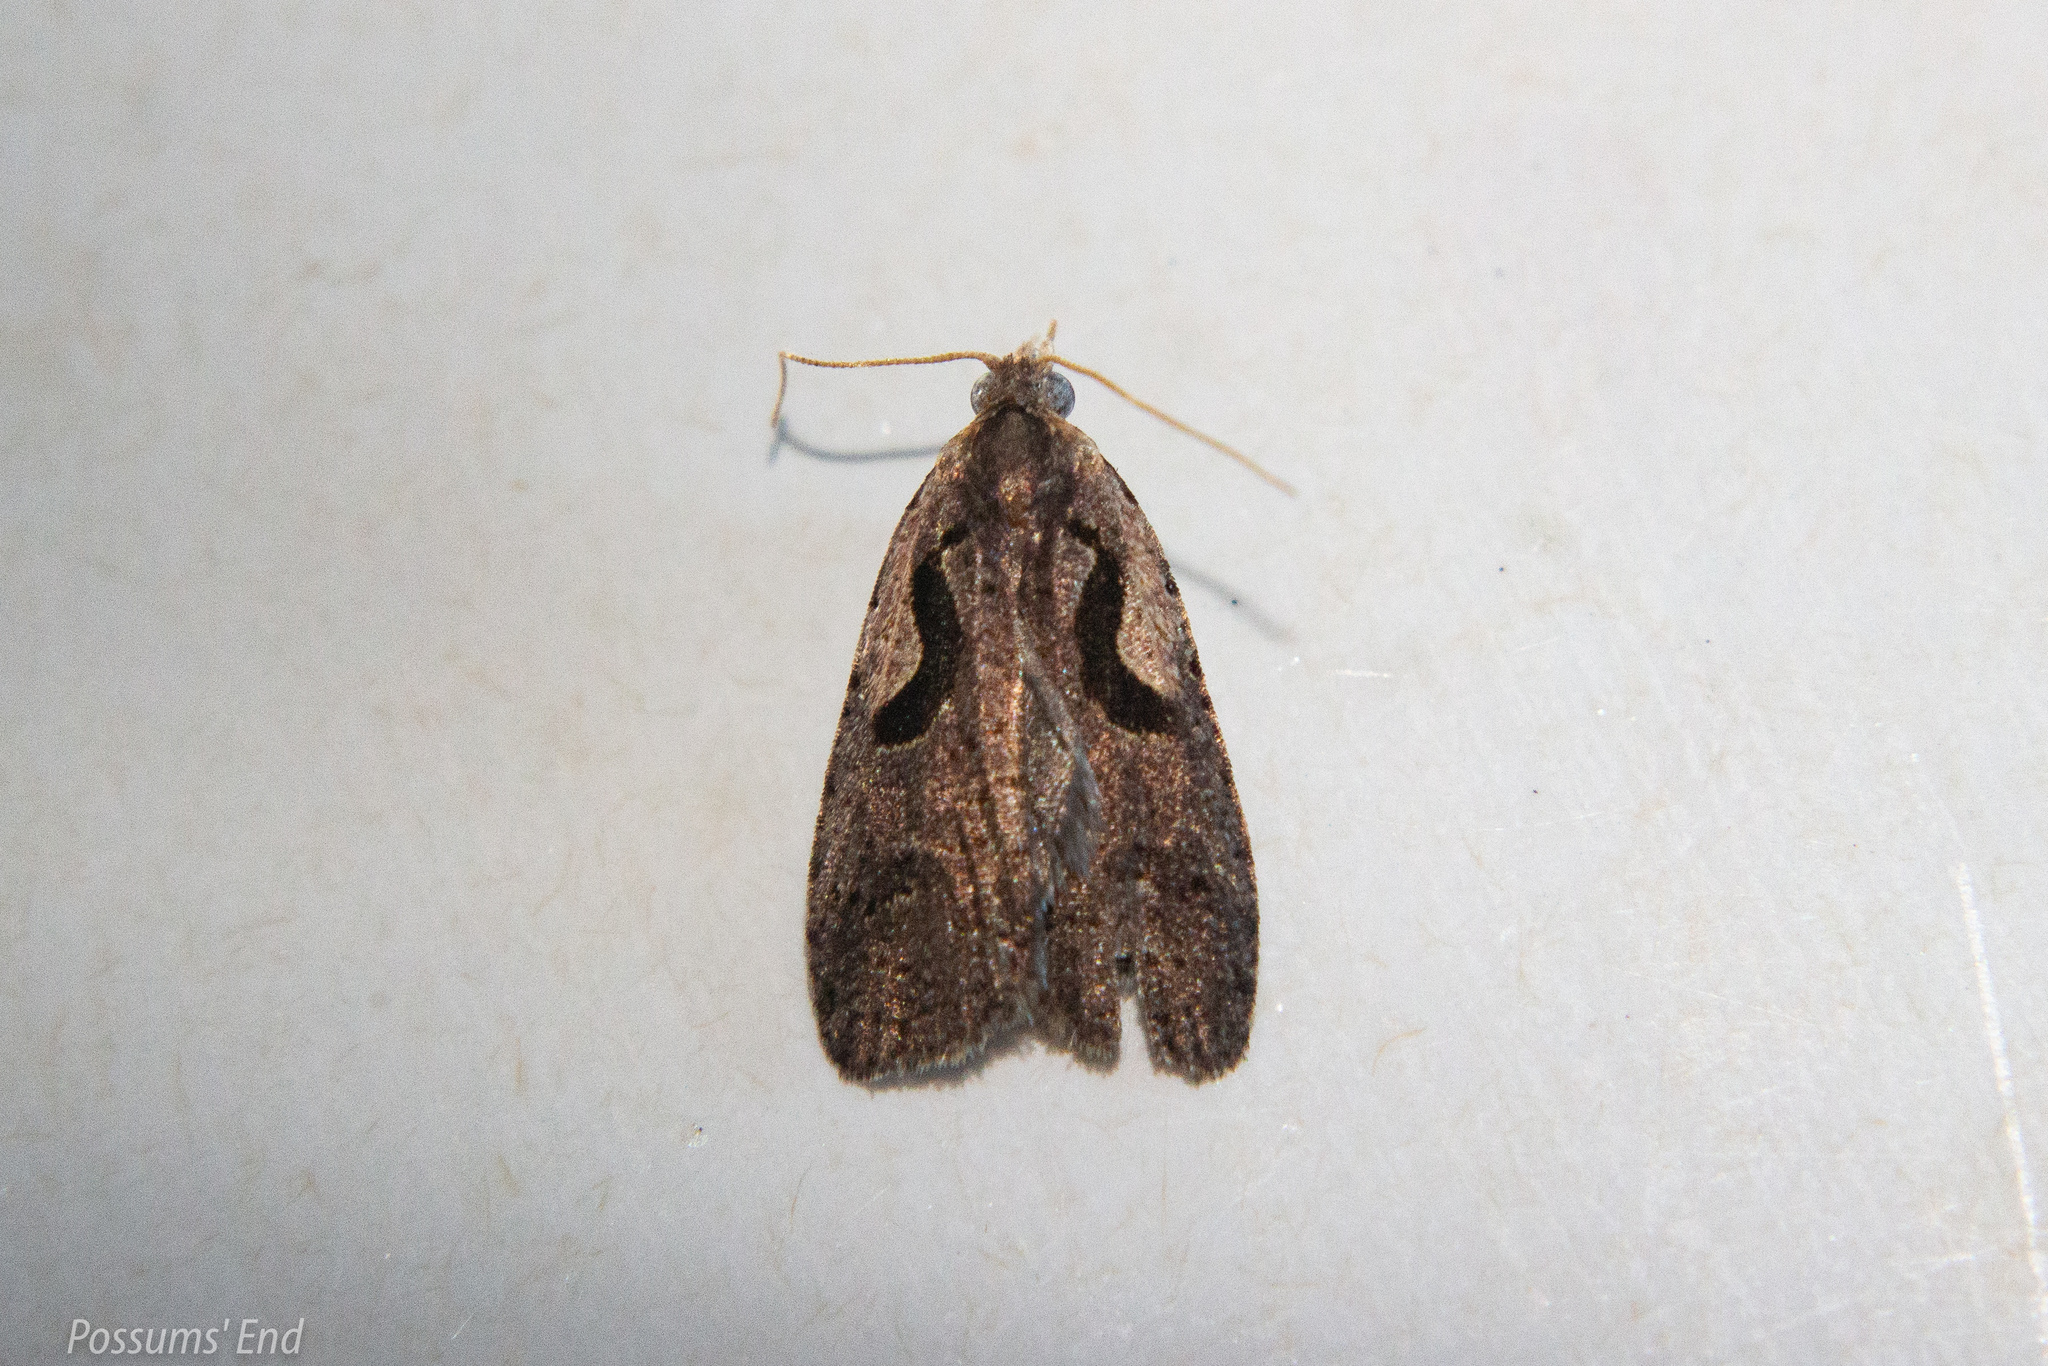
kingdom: Animalia
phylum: Arthropoda
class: Insecta
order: Lepidoptera
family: Tortricidae
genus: Cnephasia
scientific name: Cnephasia jactatana
